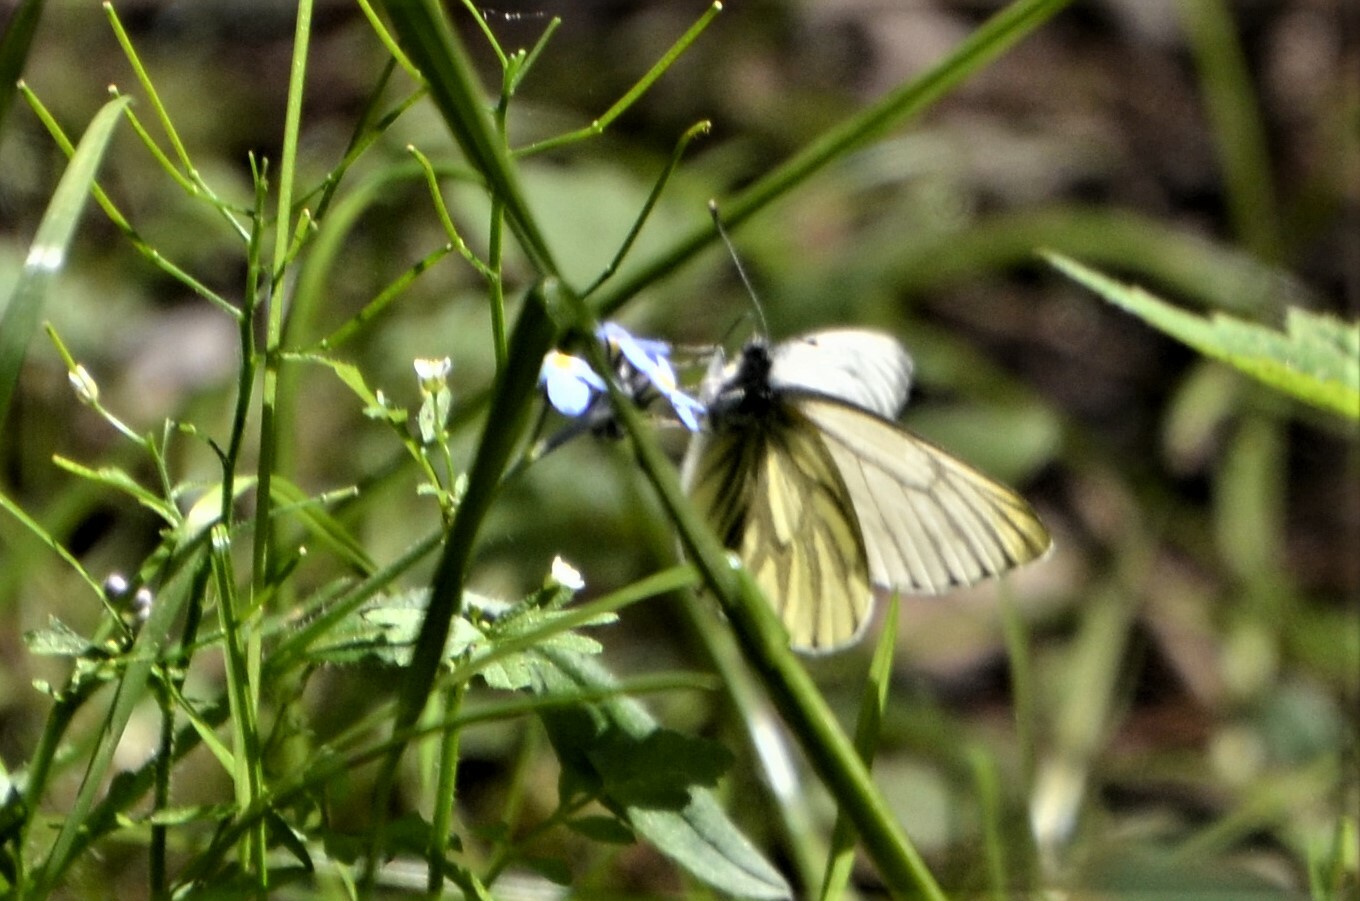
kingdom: Animalia
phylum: Arthropoda
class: Insecta
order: Lepidoptera
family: Pieridae
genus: Pieris
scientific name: Pieris napi
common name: Green-veined white
